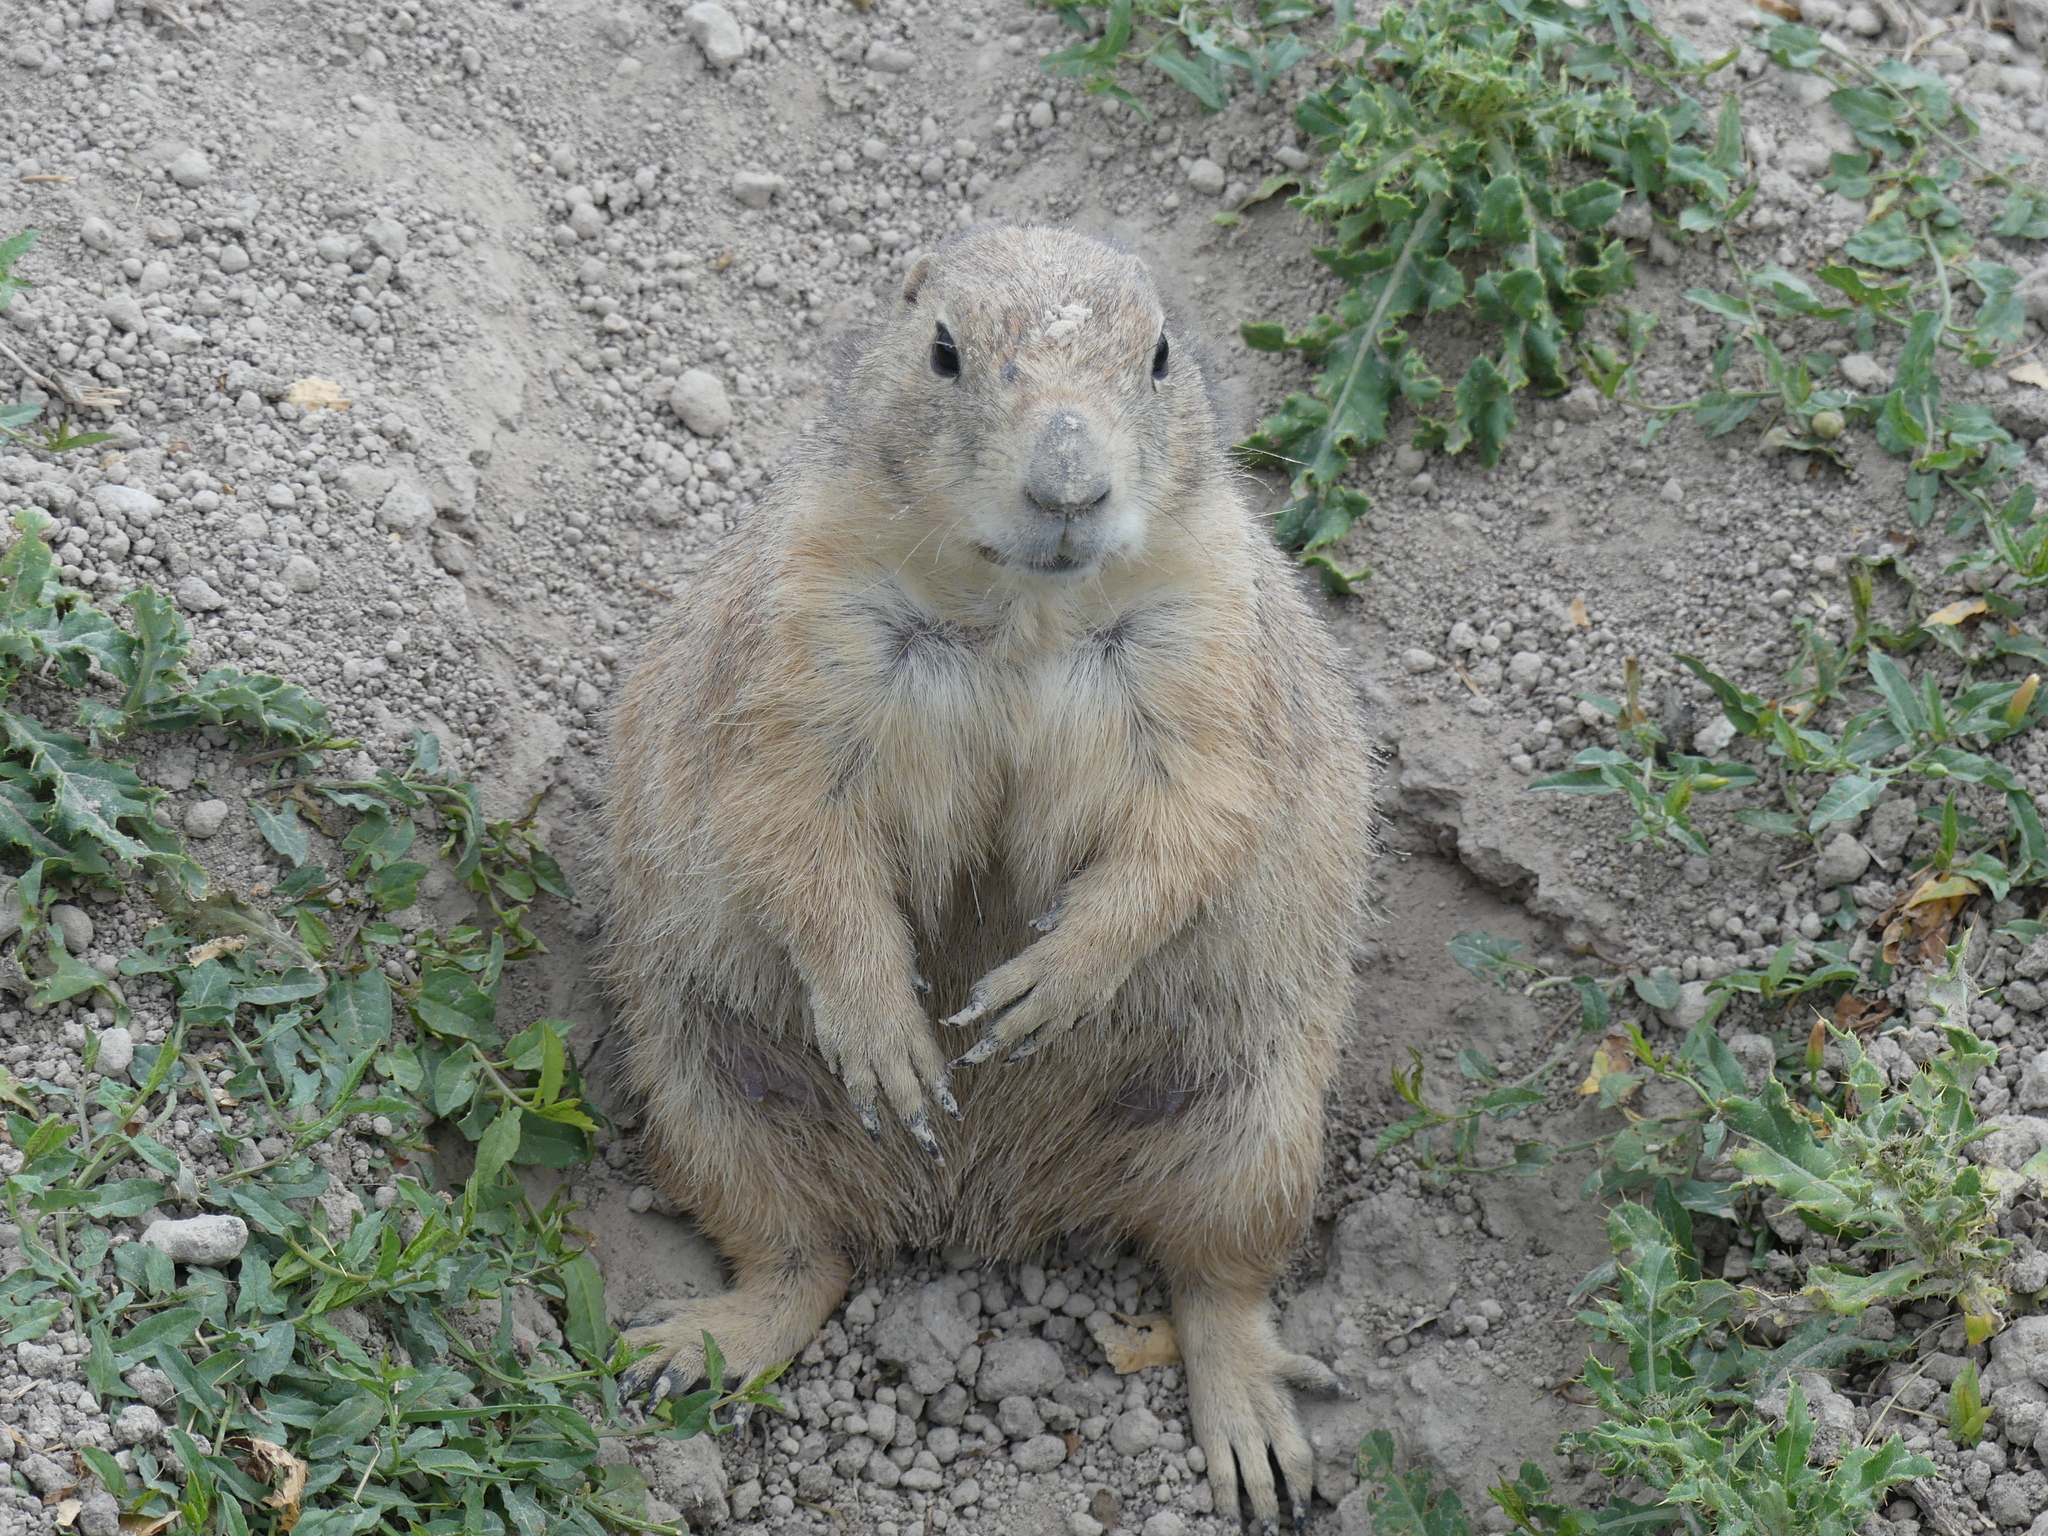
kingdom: Animalia
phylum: Chordata
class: Mammalia
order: Rodentia
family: Sciuridae
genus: Cynomys
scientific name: Cynomys ludovicianus
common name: Black-tailed prairie dog
